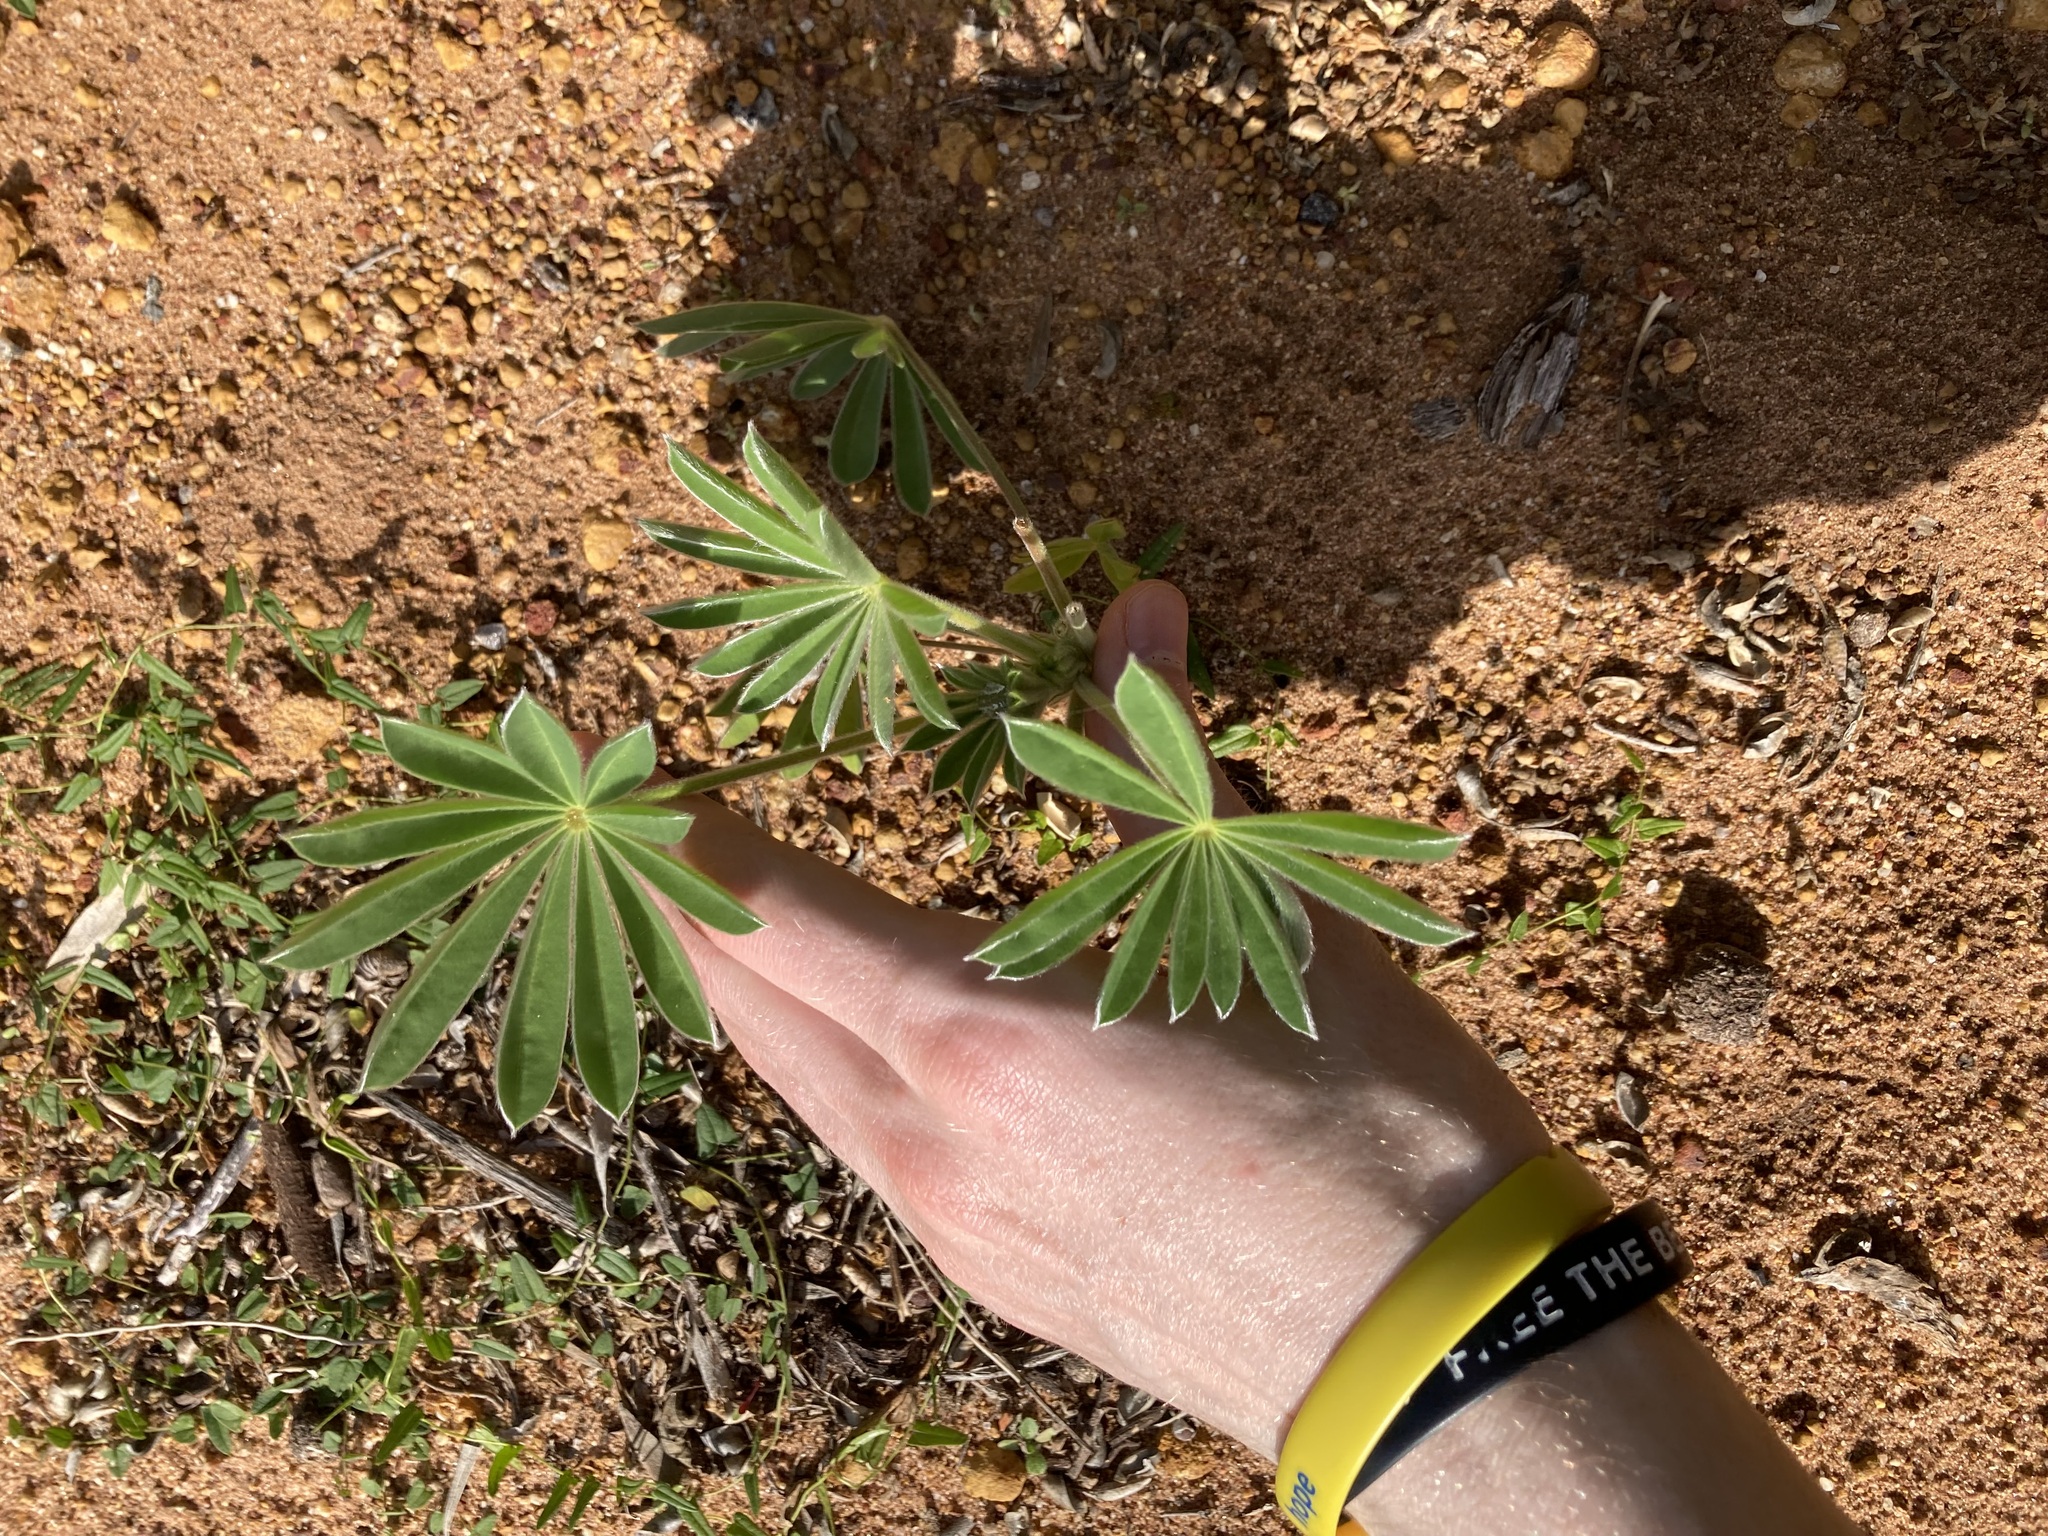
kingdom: Plantae
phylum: Tracheophyta
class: Magnoliopsida
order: Fabales
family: Fabaceae
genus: Lupinus
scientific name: Lupinus cosentinii
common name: Hairy blue lupin
